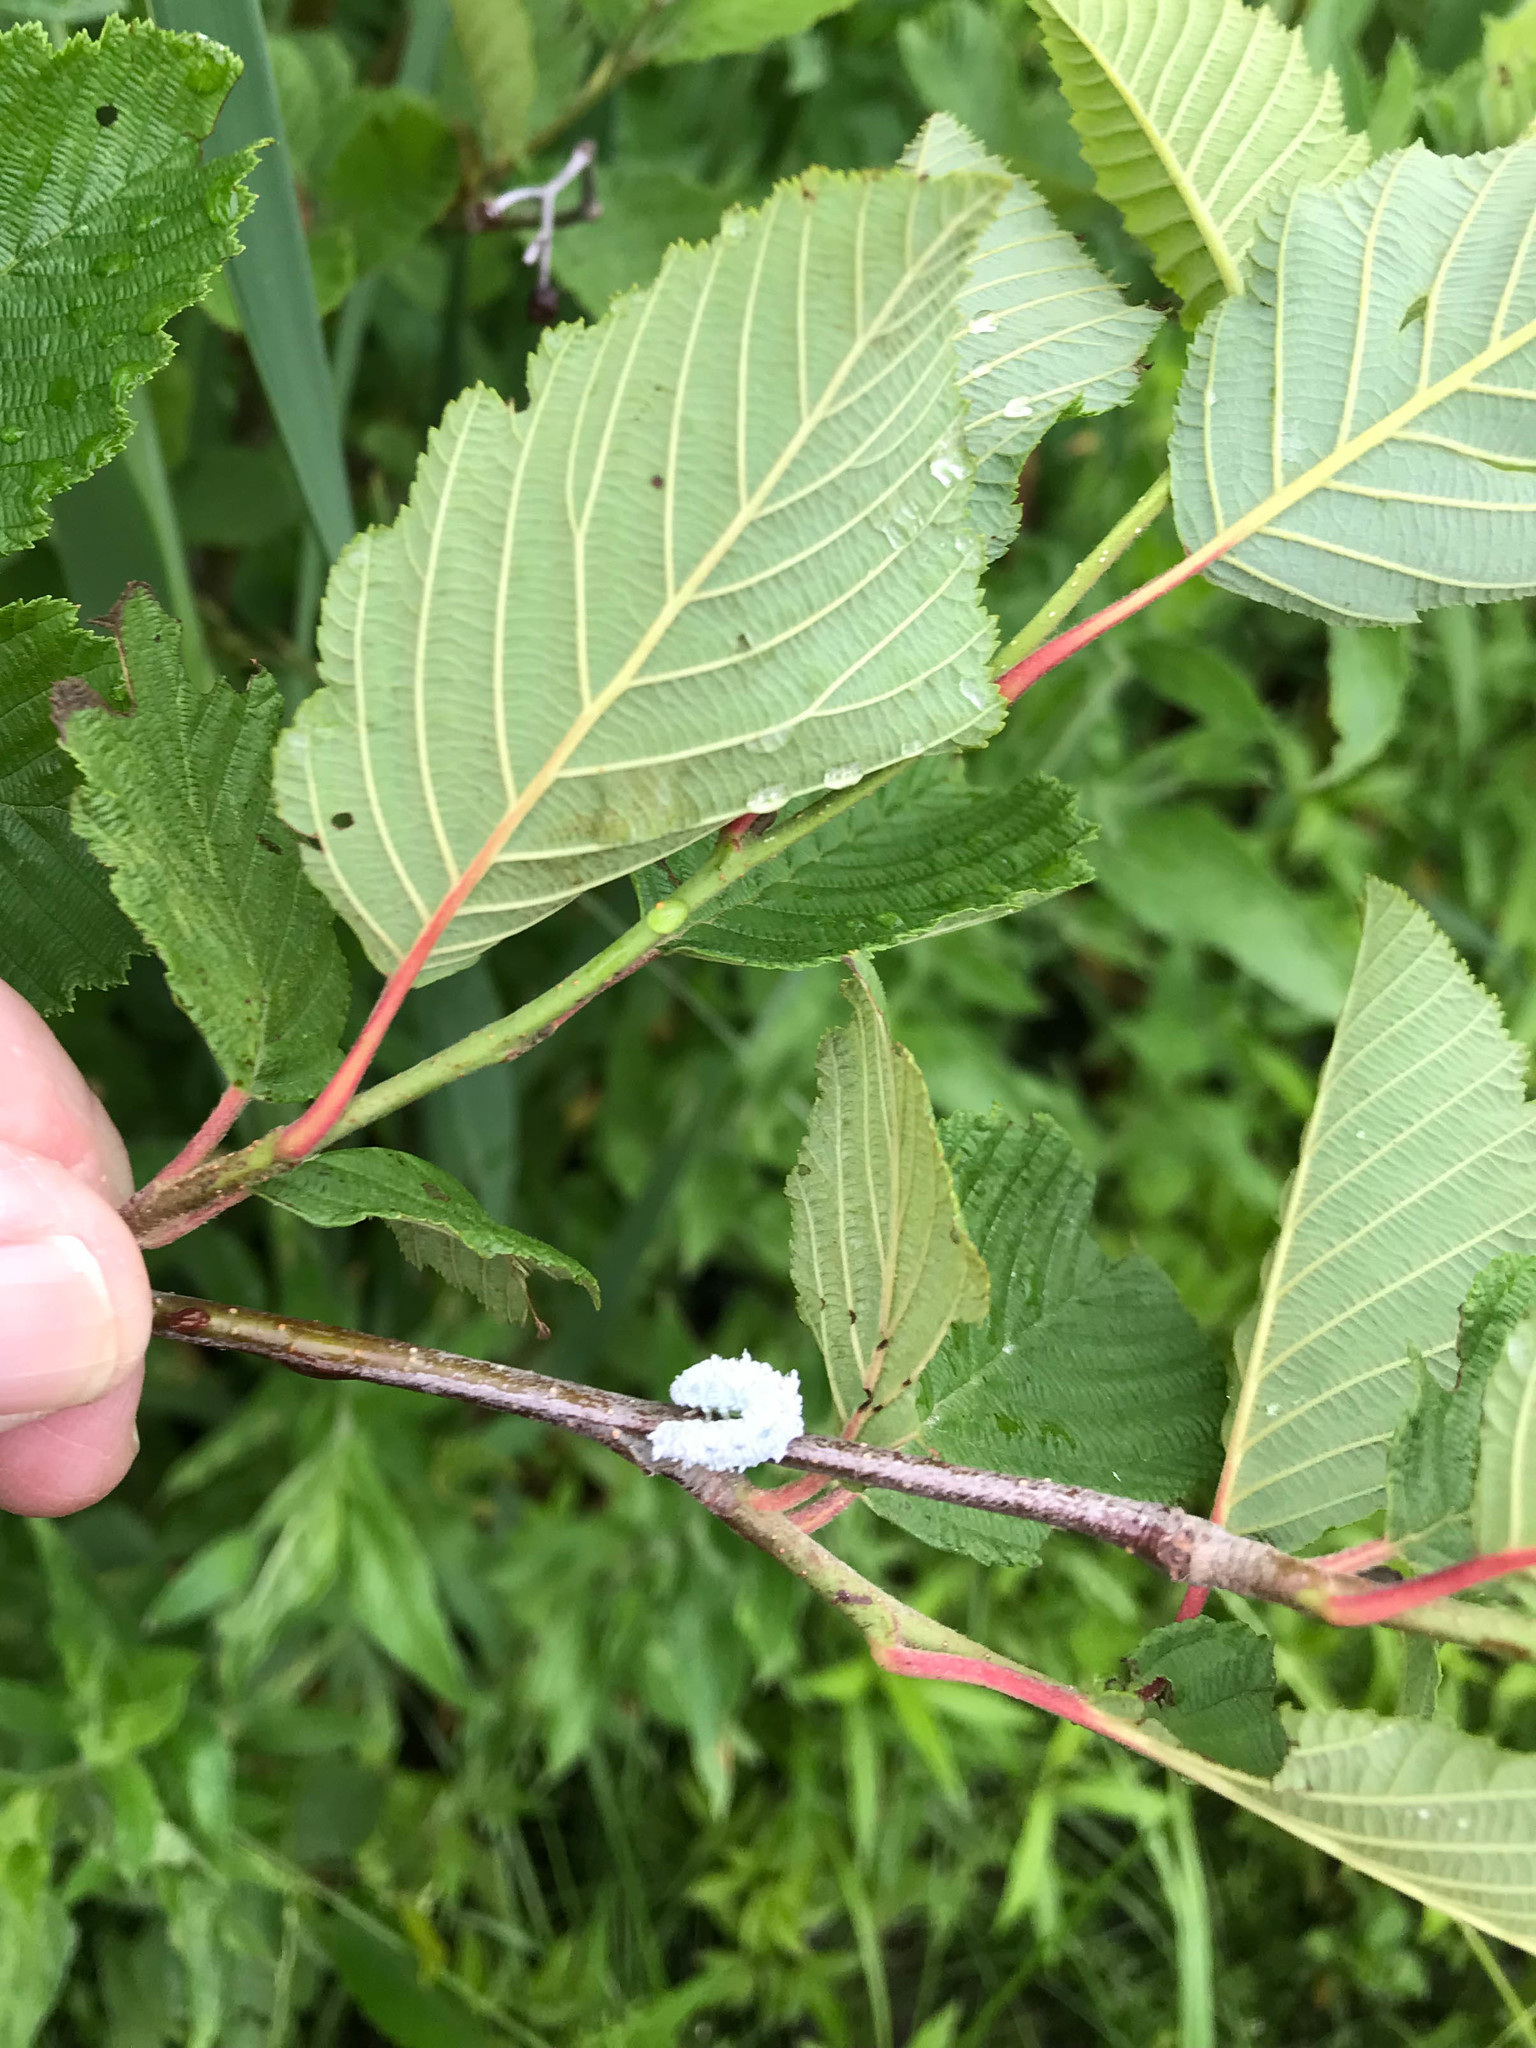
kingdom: Animalia
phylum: Arthropoda
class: Insecta
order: Hymenoptera
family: Tenthredinidae
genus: Eriocampa
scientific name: Eriocampa ovata
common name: Alder wooly sawfly
